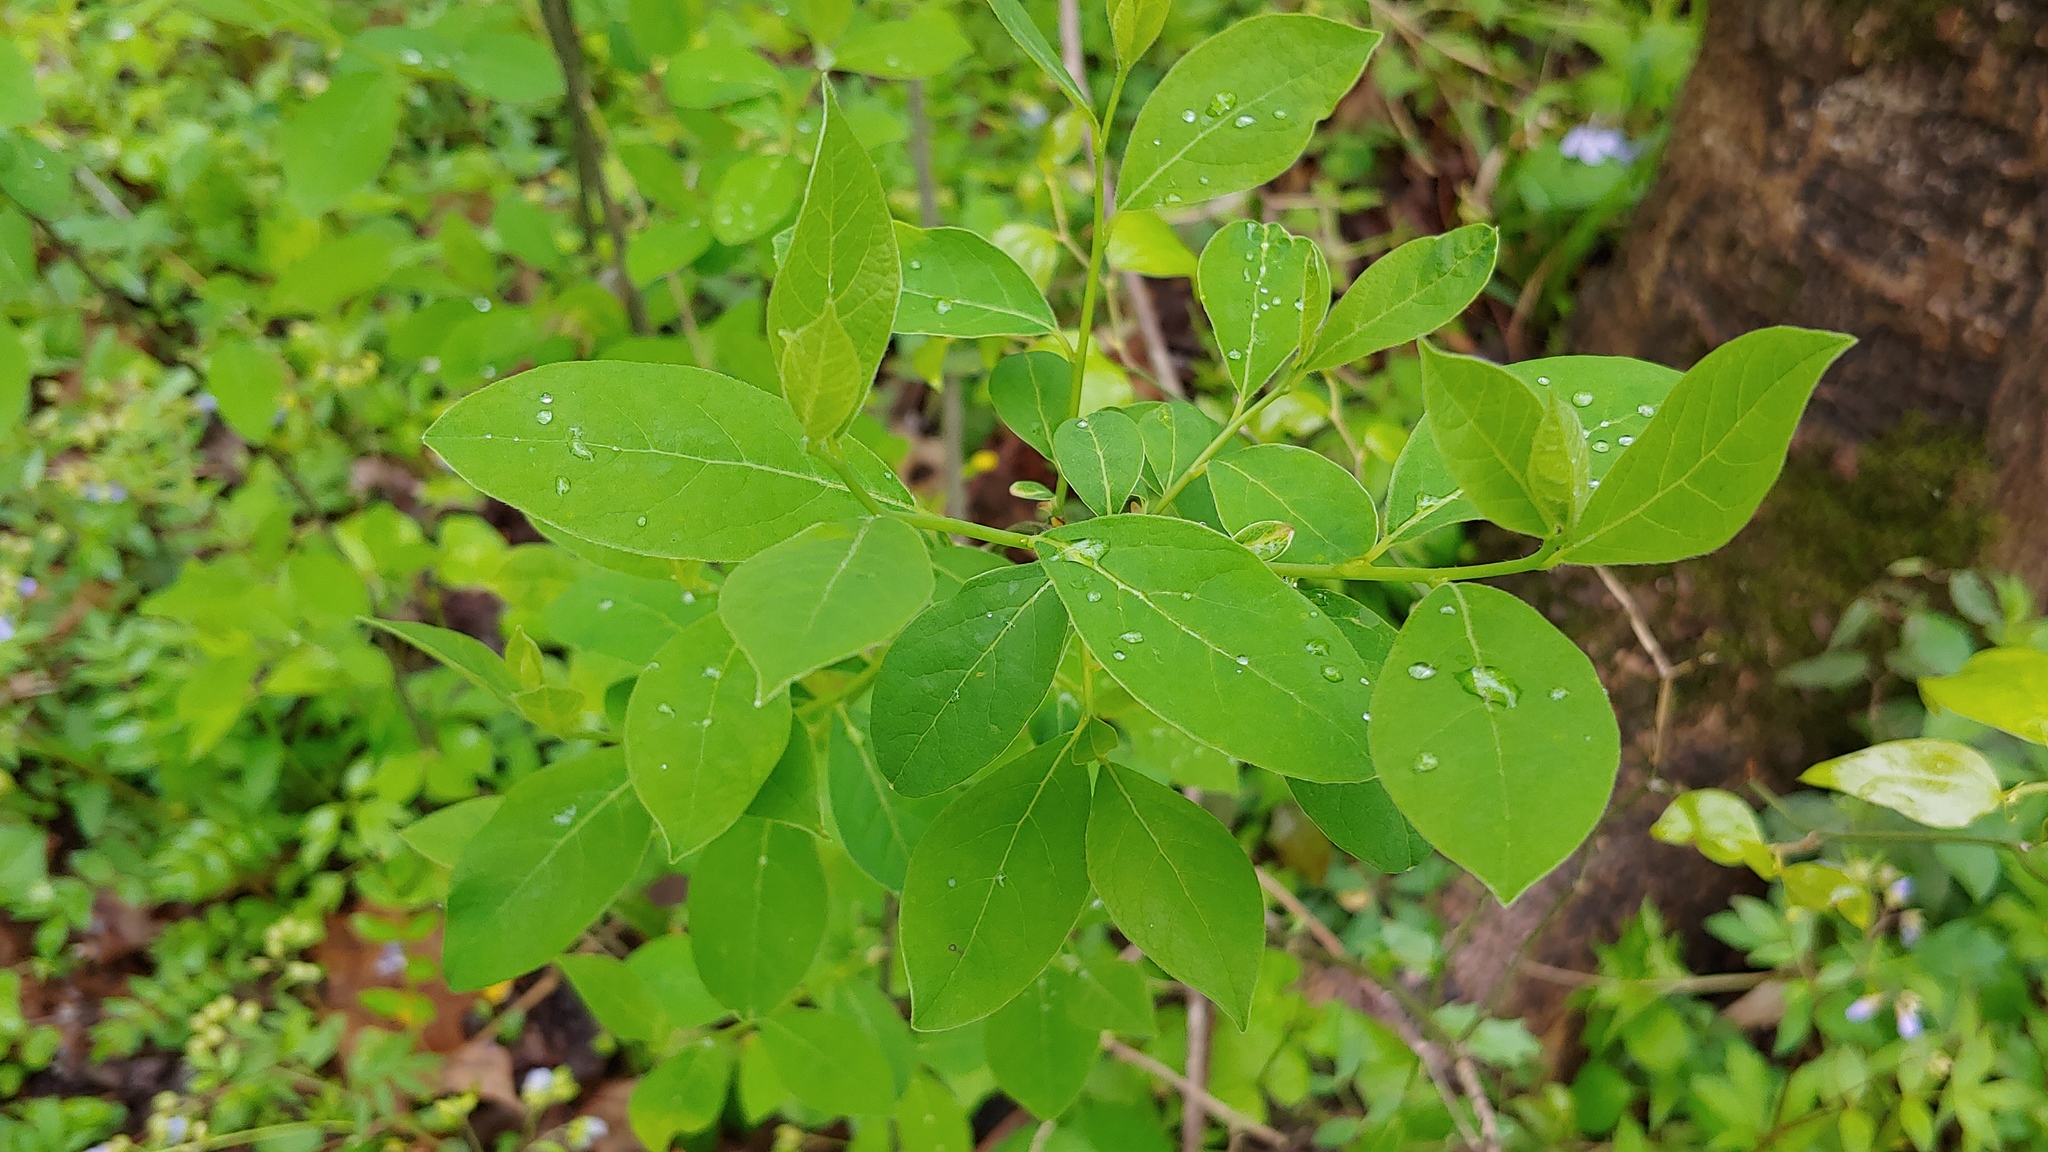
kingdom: Plantae
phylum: Tracheophyta
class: Magnoliopsida
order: Laurales
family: Lauraceae
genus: Lindera
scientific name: Lindera benzoin
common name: Spicebush
